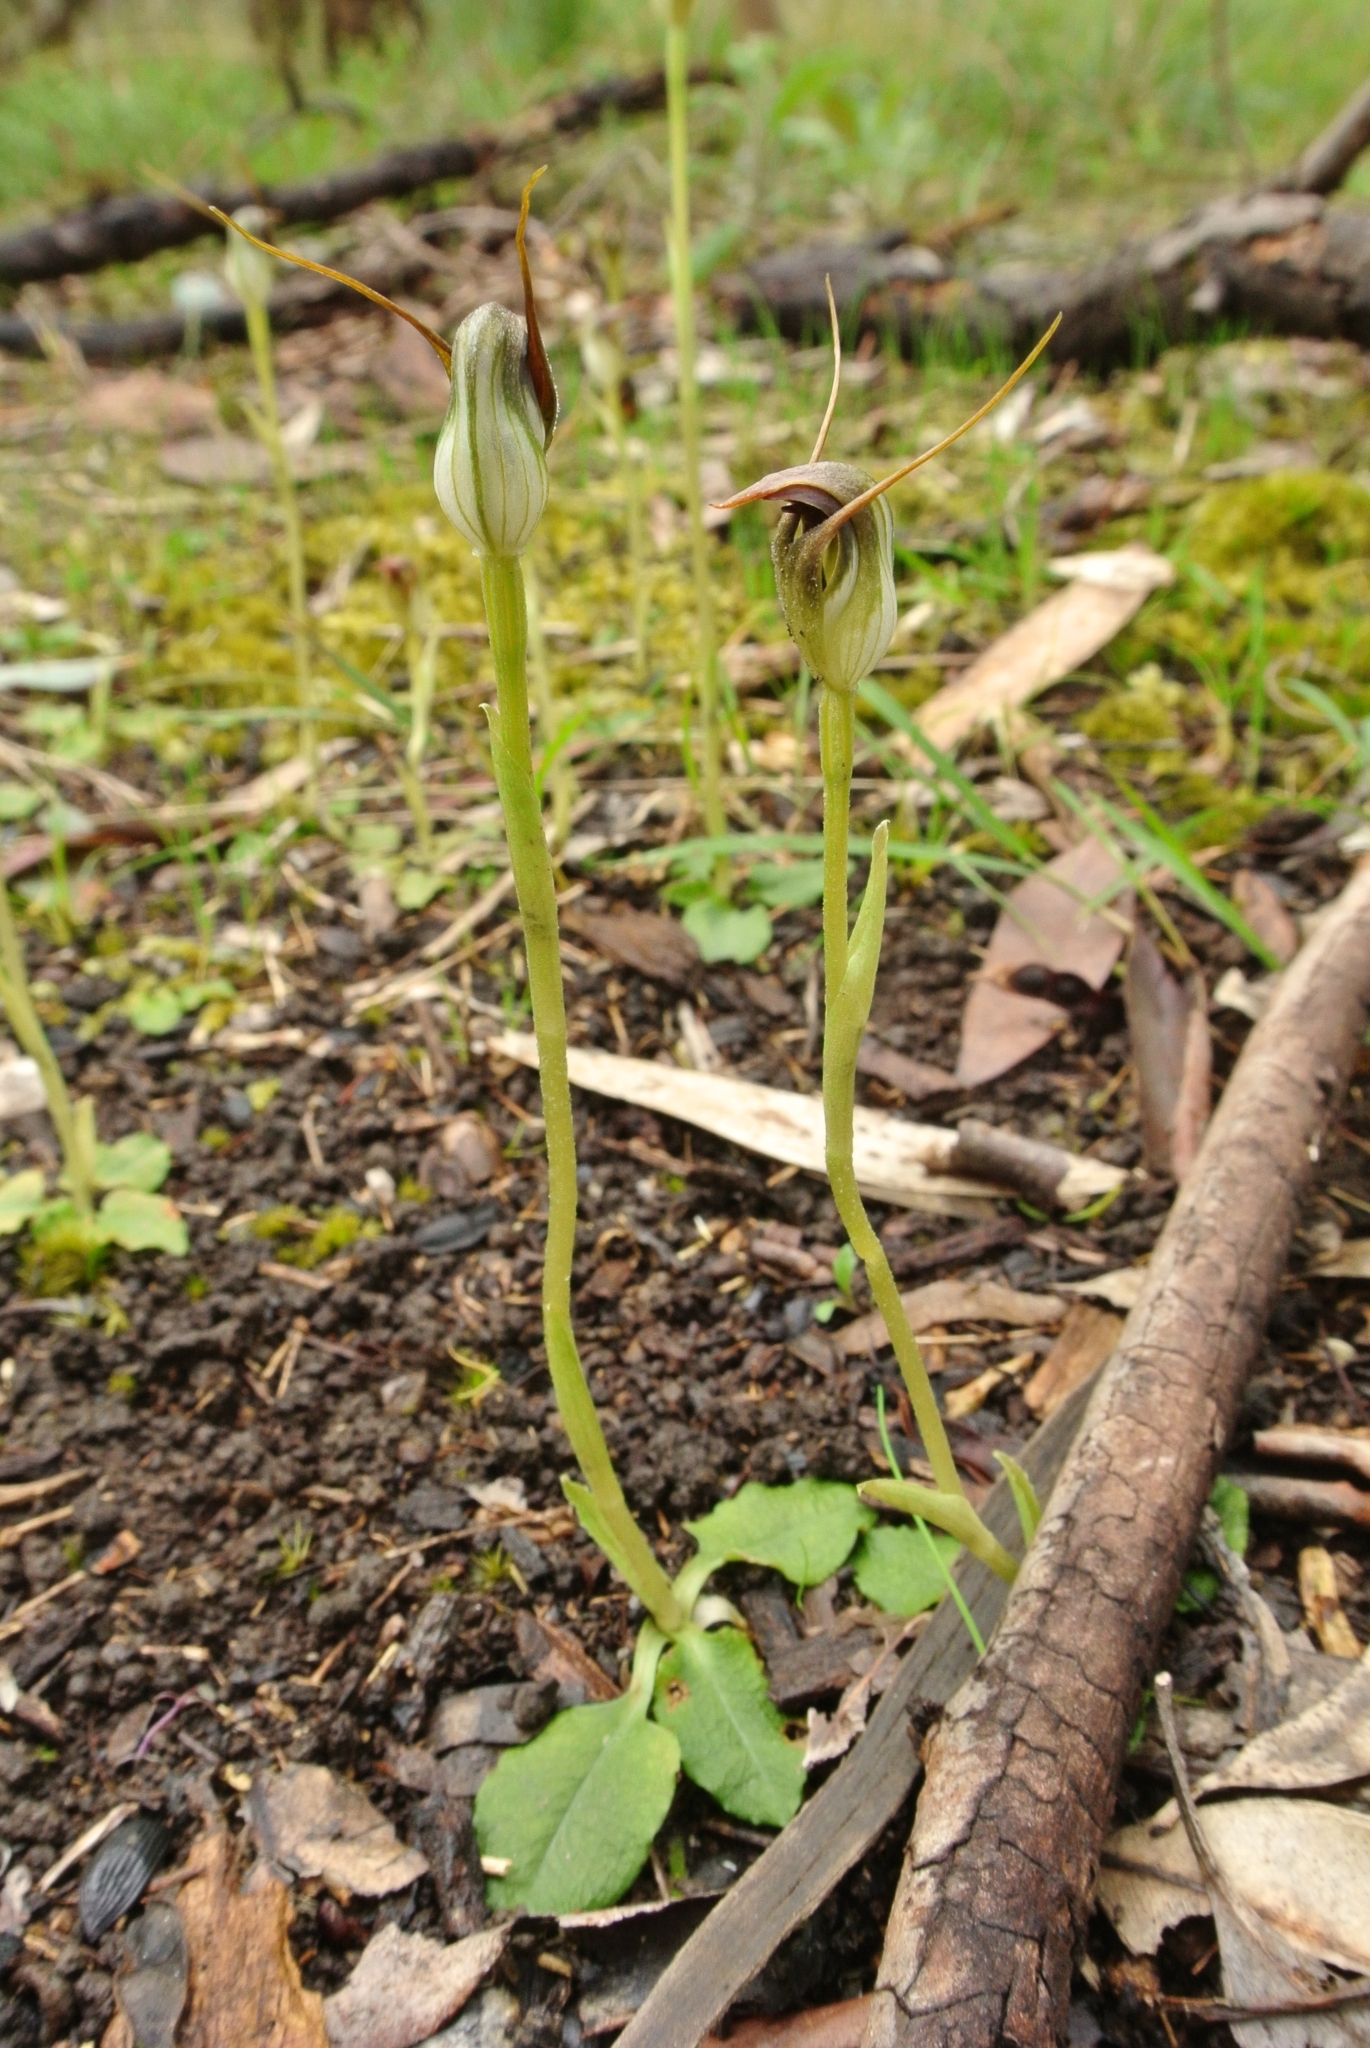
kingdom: Plantae
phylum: Tracheophyta
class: Liliopsida
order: Asparagales
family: Orchidaceae
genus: Pterostylis
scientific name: Pterostylis pedunculata
